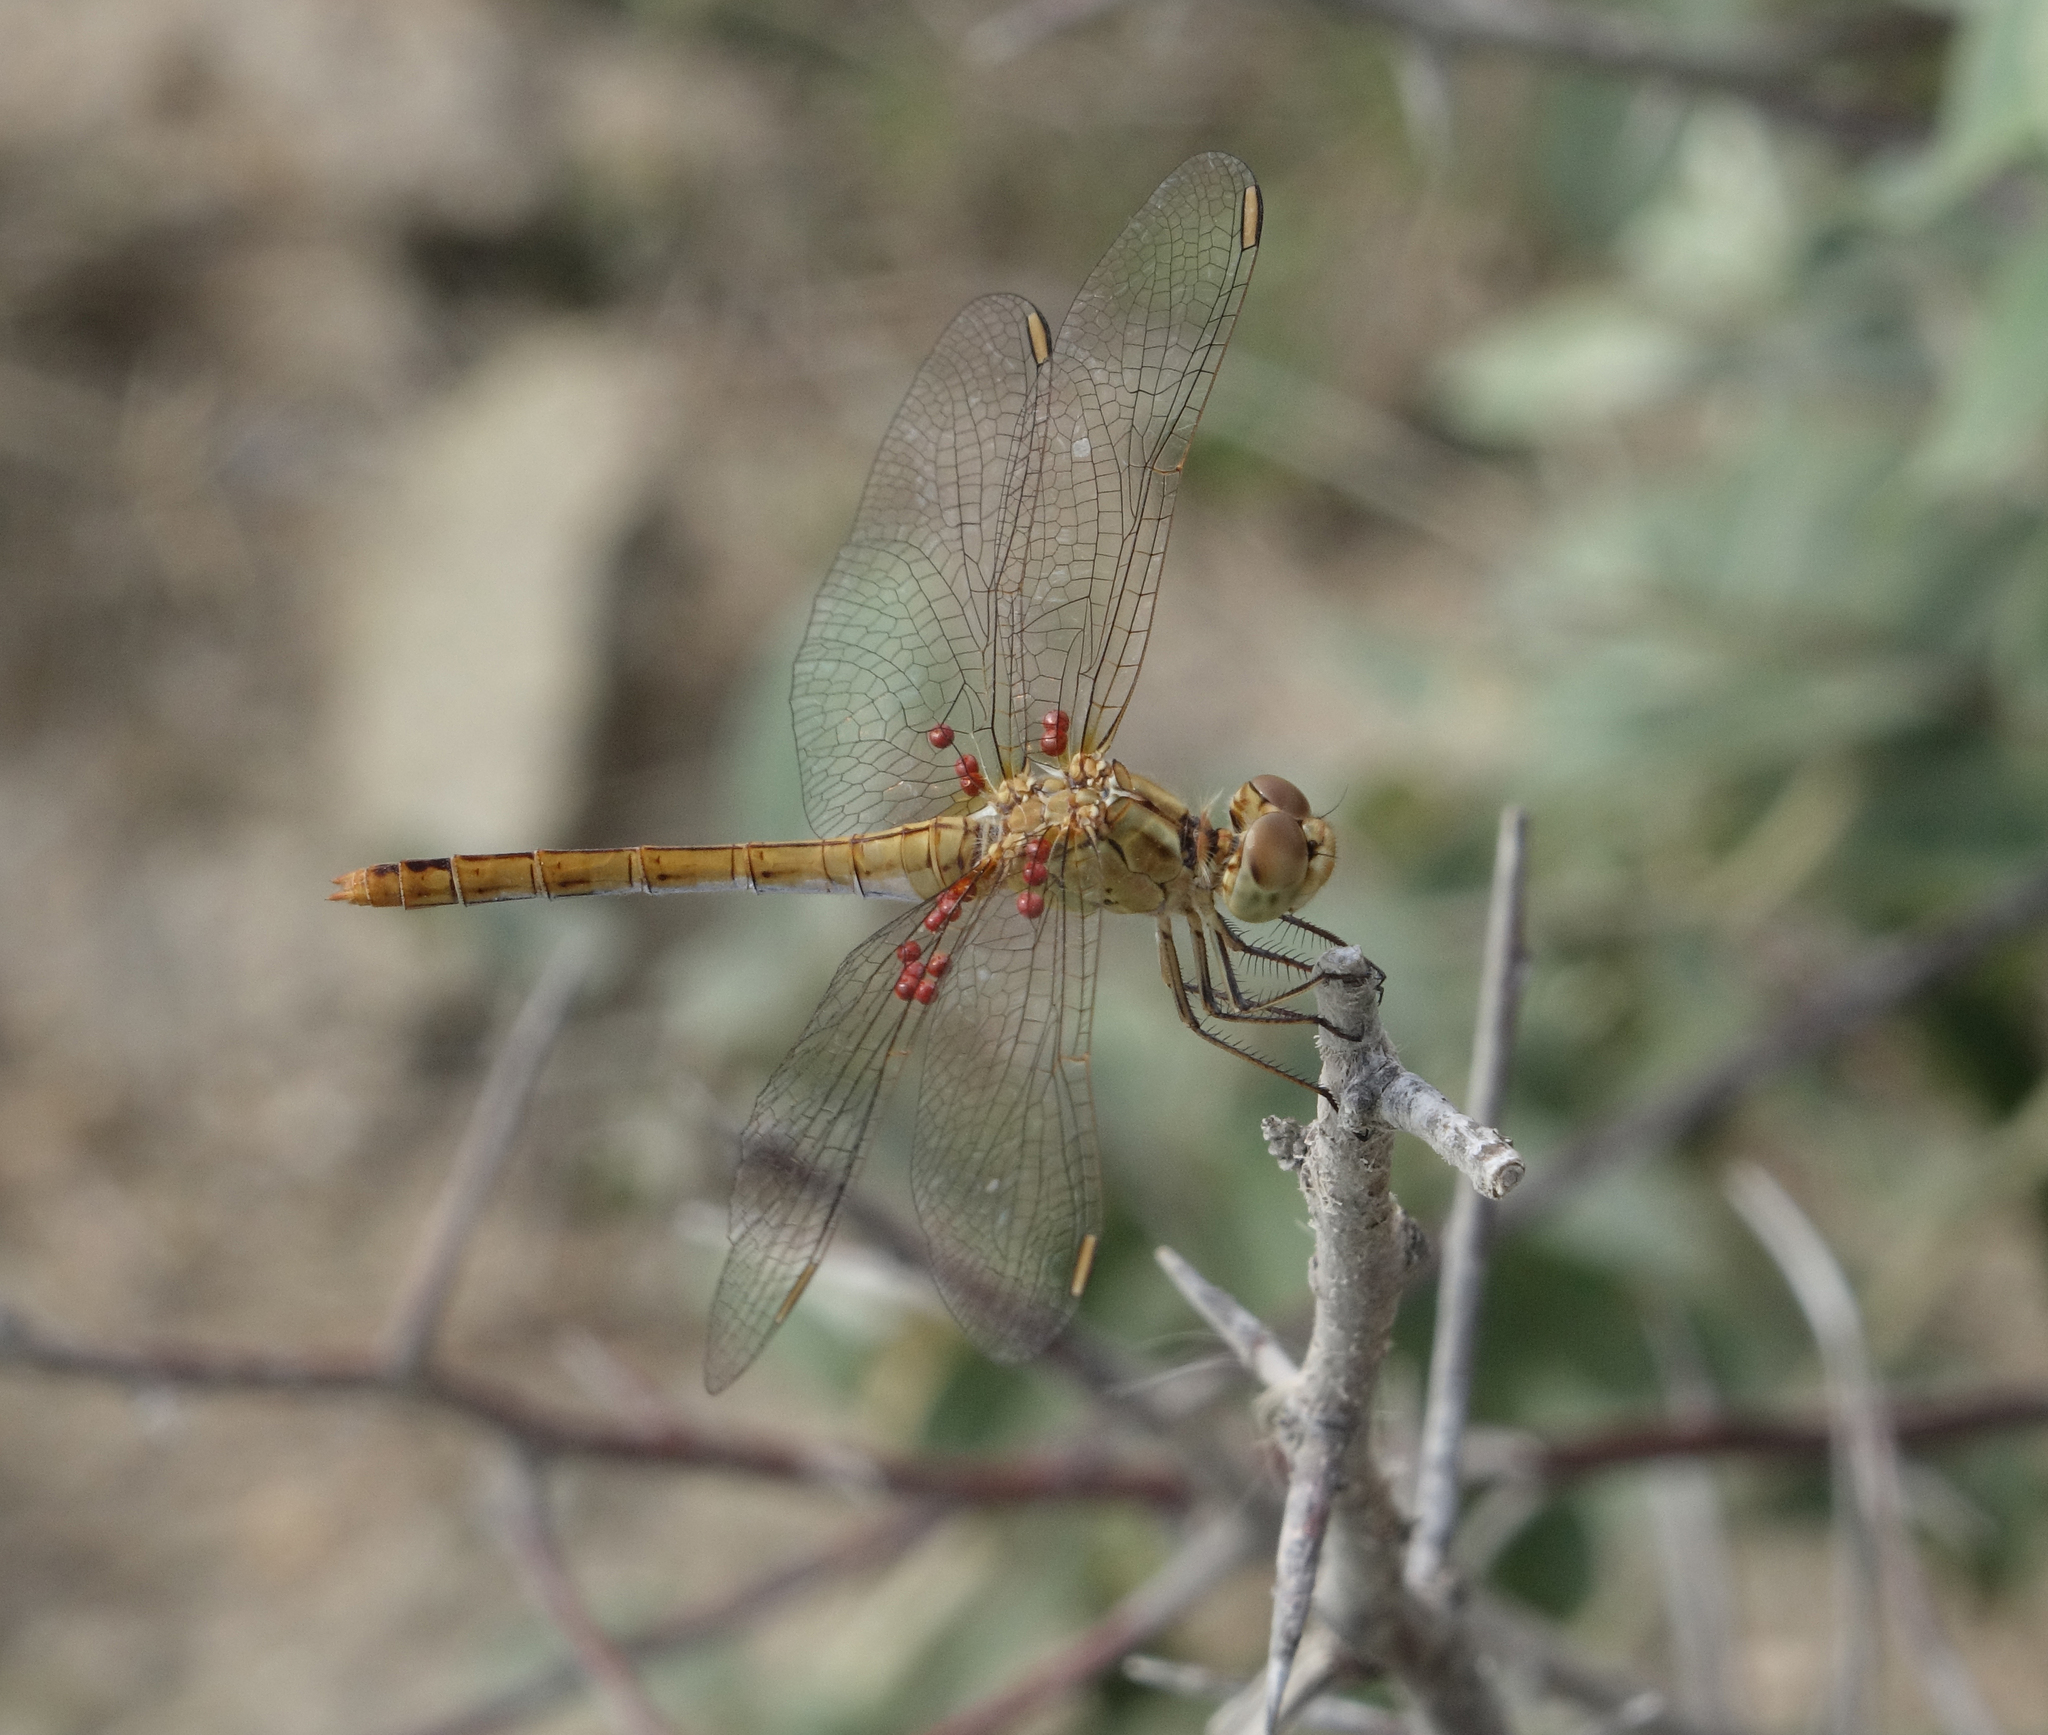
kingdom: Animalia
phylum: Arthropoda
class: Insecta
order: Odonata
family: Libellulidae
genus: Sympetrum
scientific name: Sympetrum meridionale
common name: Southern darter
